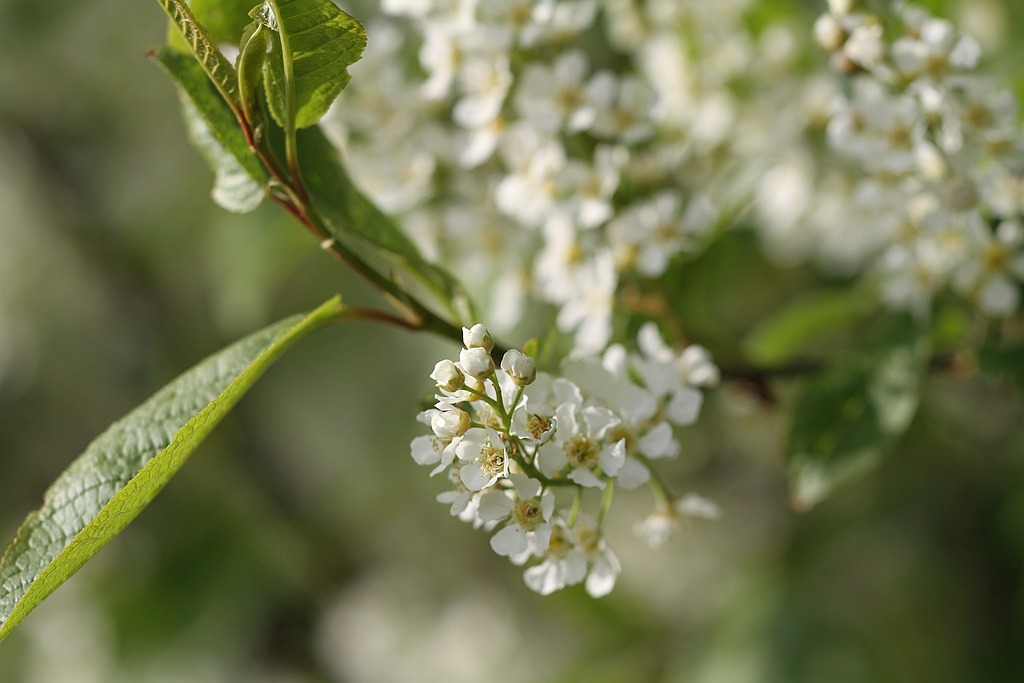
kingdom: Plantae
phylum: Tracheophyta
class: Magnoliopsida
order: Rosales
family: Rosaceae
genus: Prunus
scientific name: Prunus padus
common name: Bird cherry
